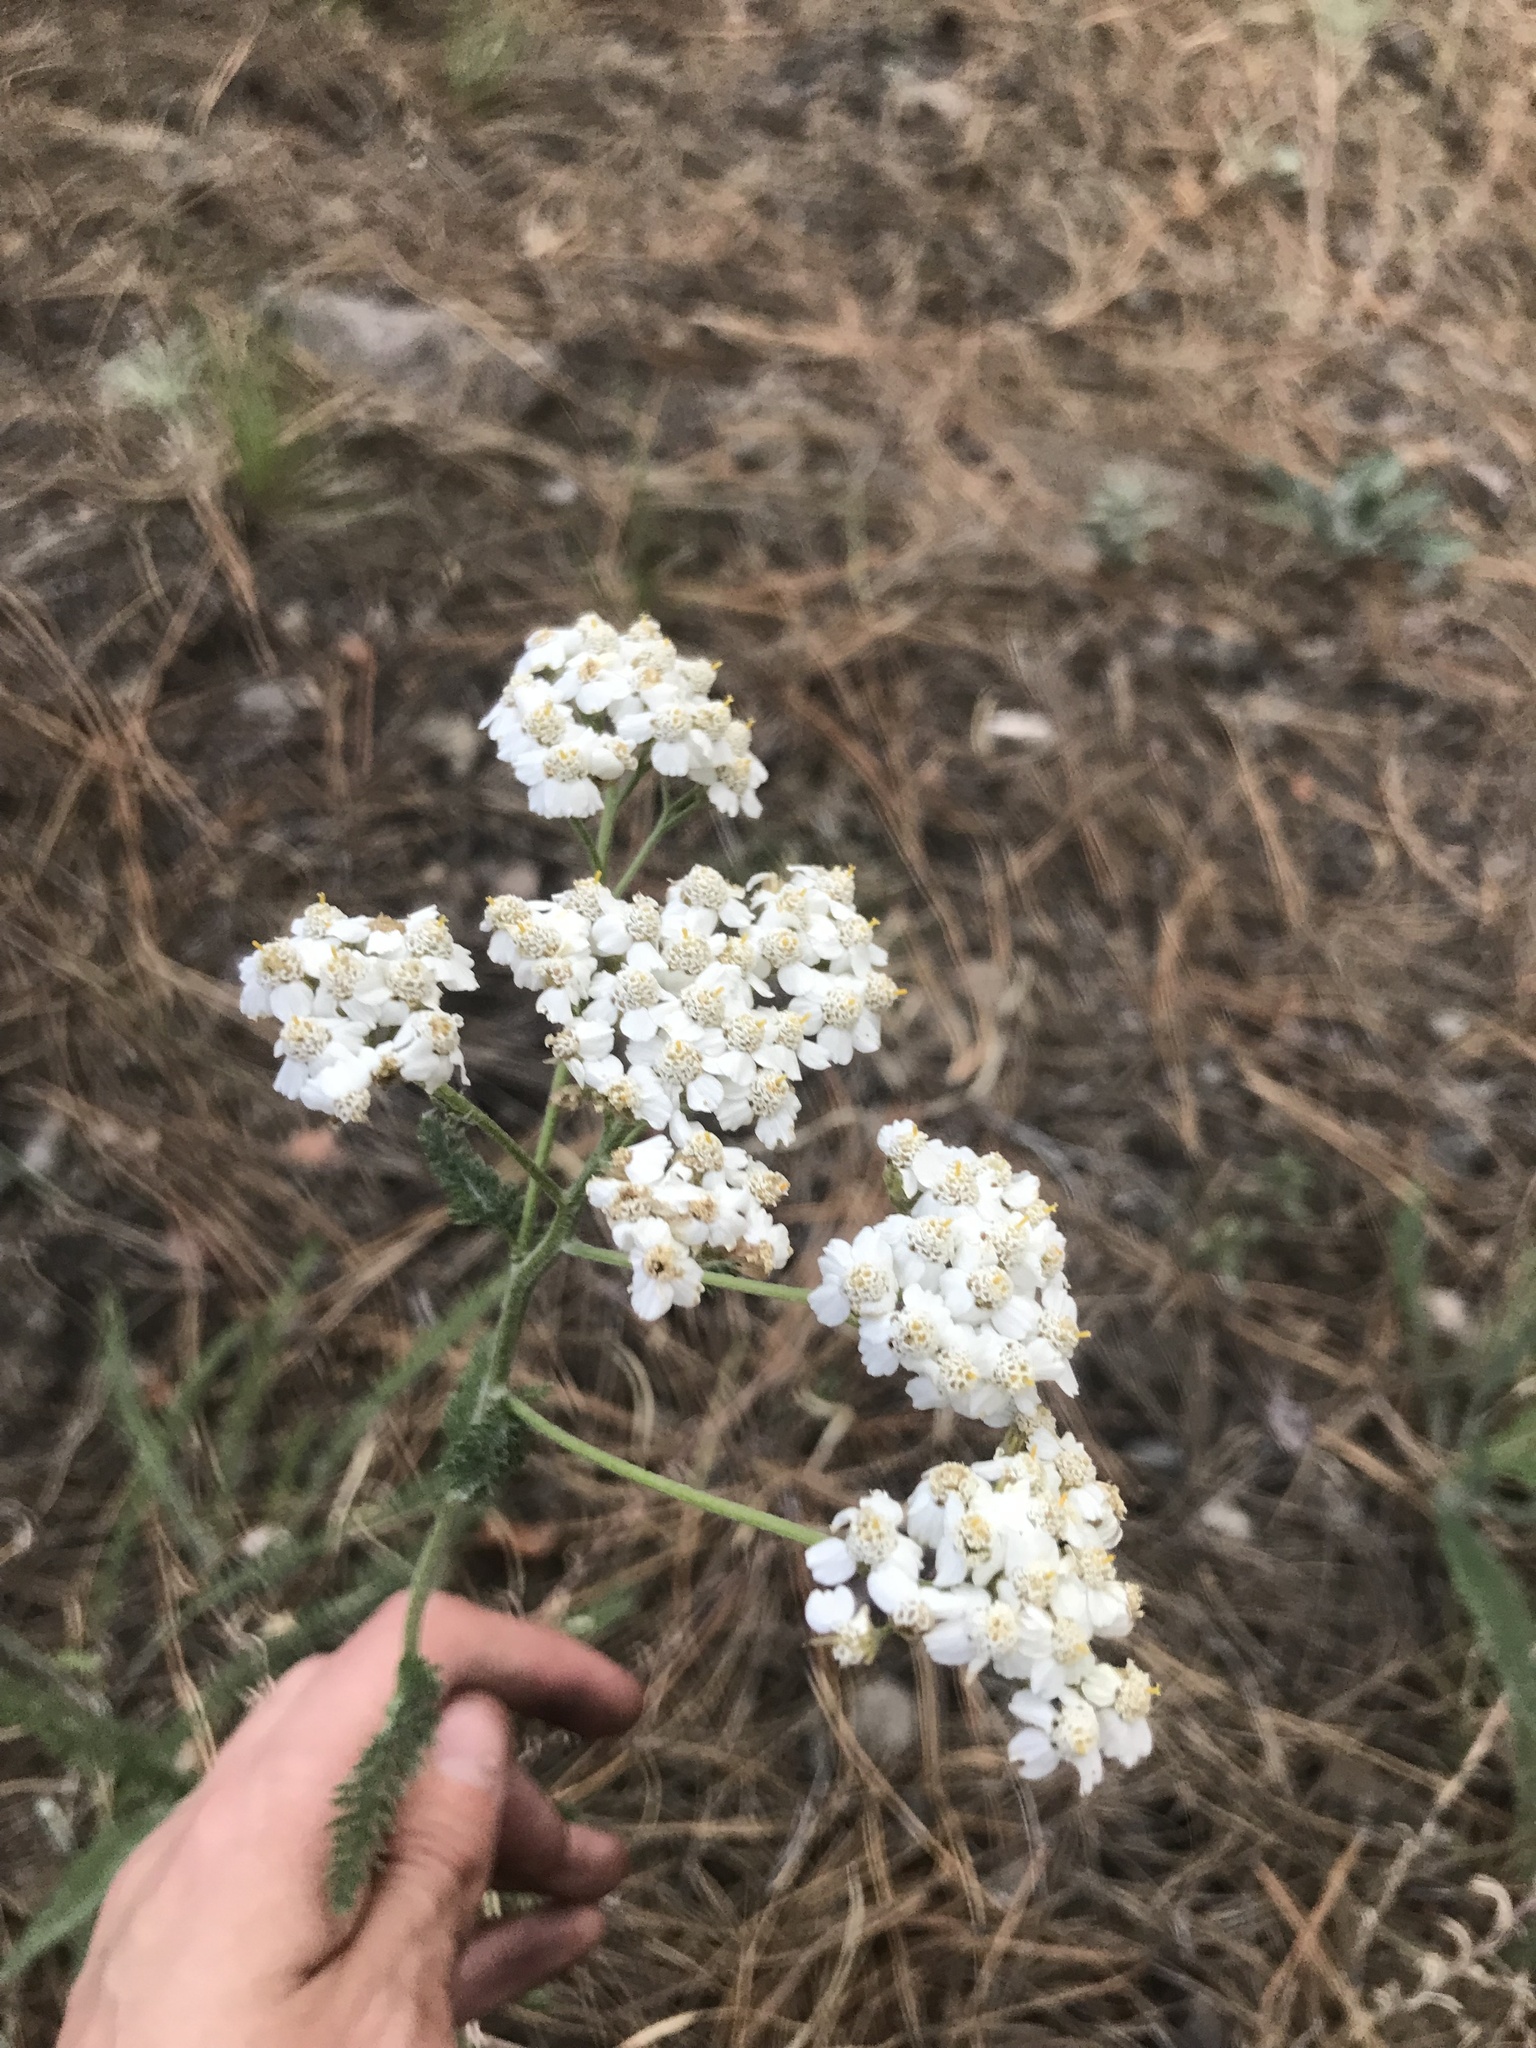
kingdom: Plantae
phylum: Tracheophyta
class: Magnoliopsida
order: Asterales
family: Asteraceae
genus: Achillea
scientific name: Achillea millefolium
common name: Yarrow
